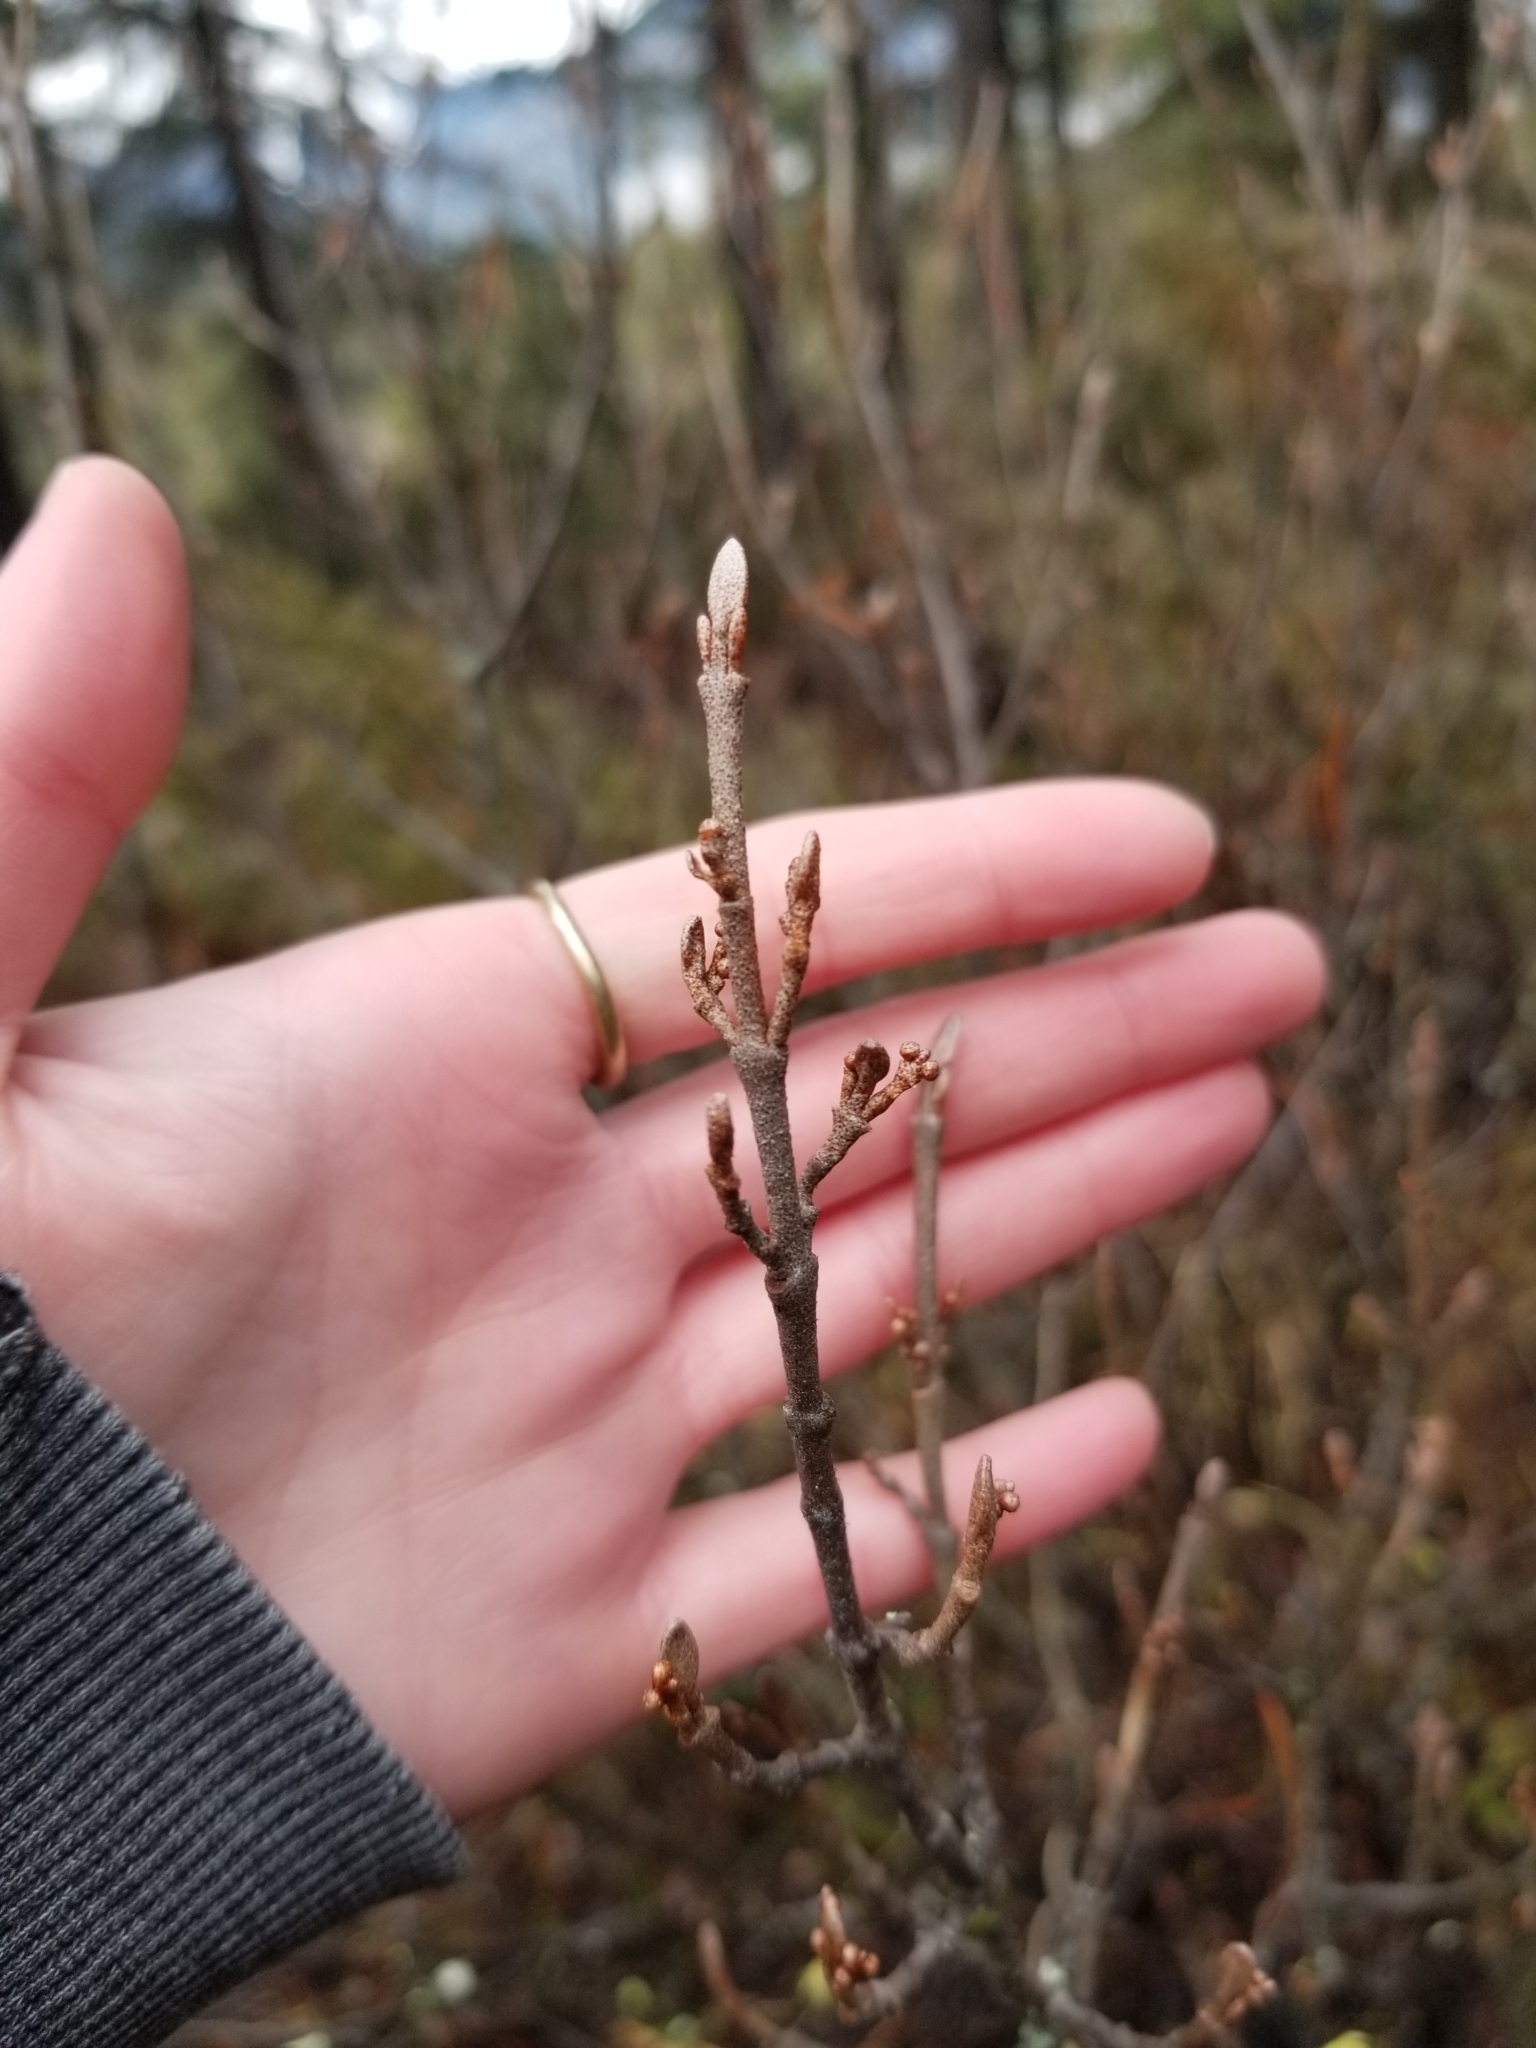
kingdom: Plantae
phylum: Tracheophyta
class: Magnoliopsida
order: Rosales
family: Elaeagnaceae
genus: Shepherdia
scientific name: Shepherdia canadensis
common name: Soapberry
